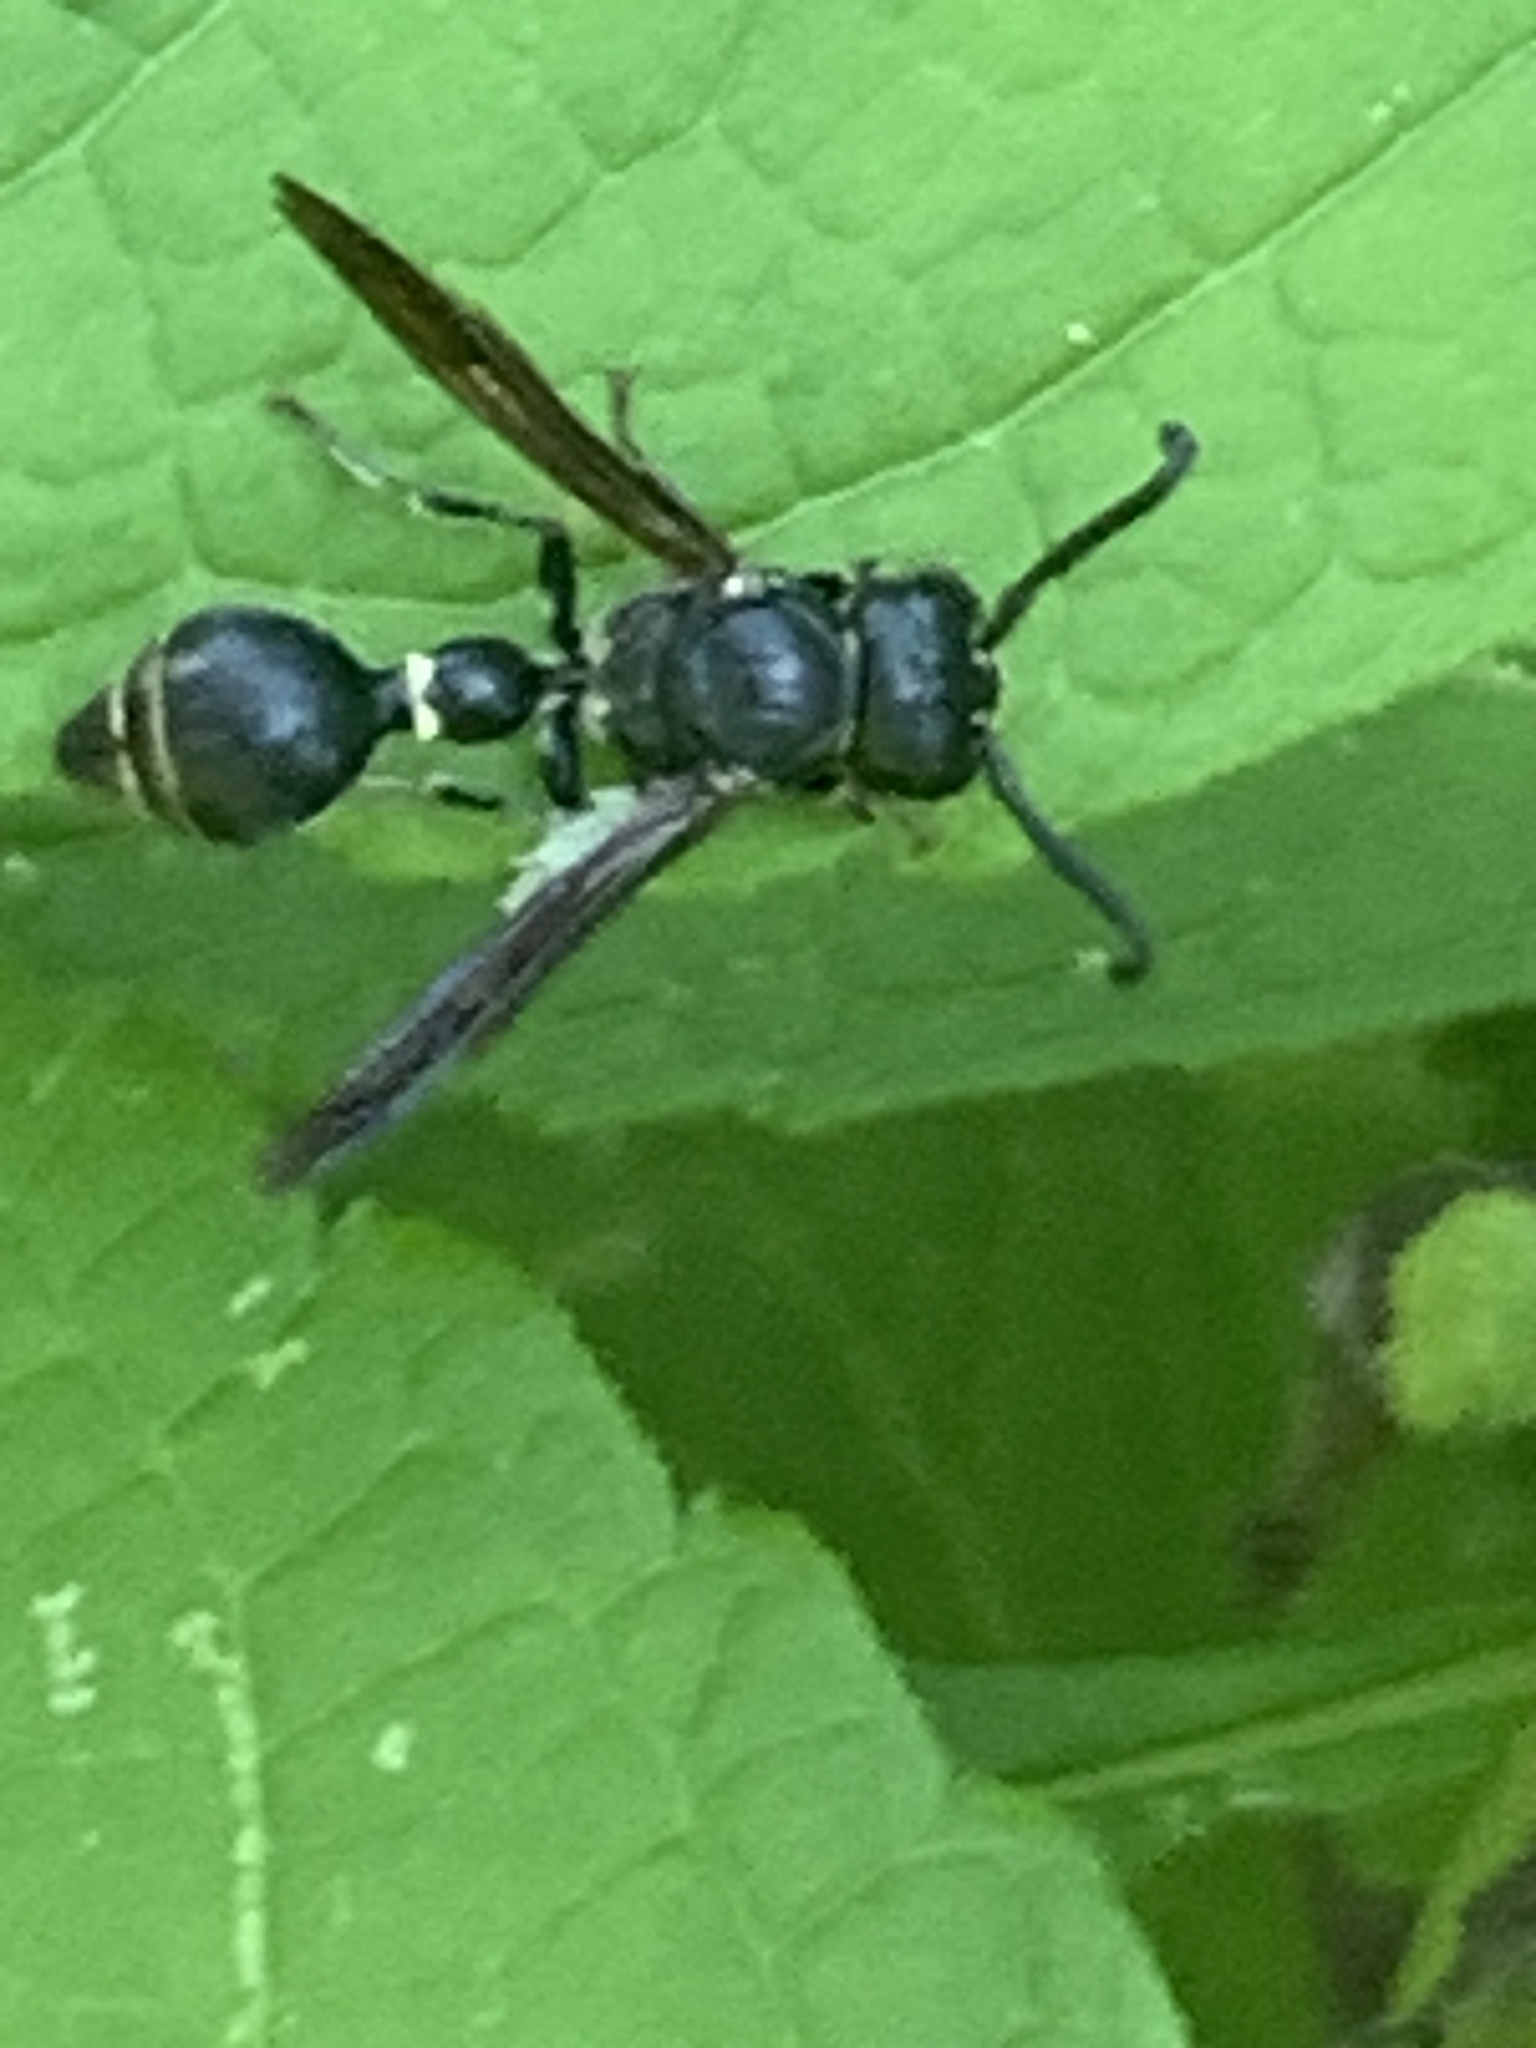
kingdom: Animalia
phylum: Arthropoda
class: Insecta
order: Hymenoptera
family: Eumenidae
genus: Zethus
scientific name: Zethus spinipes
